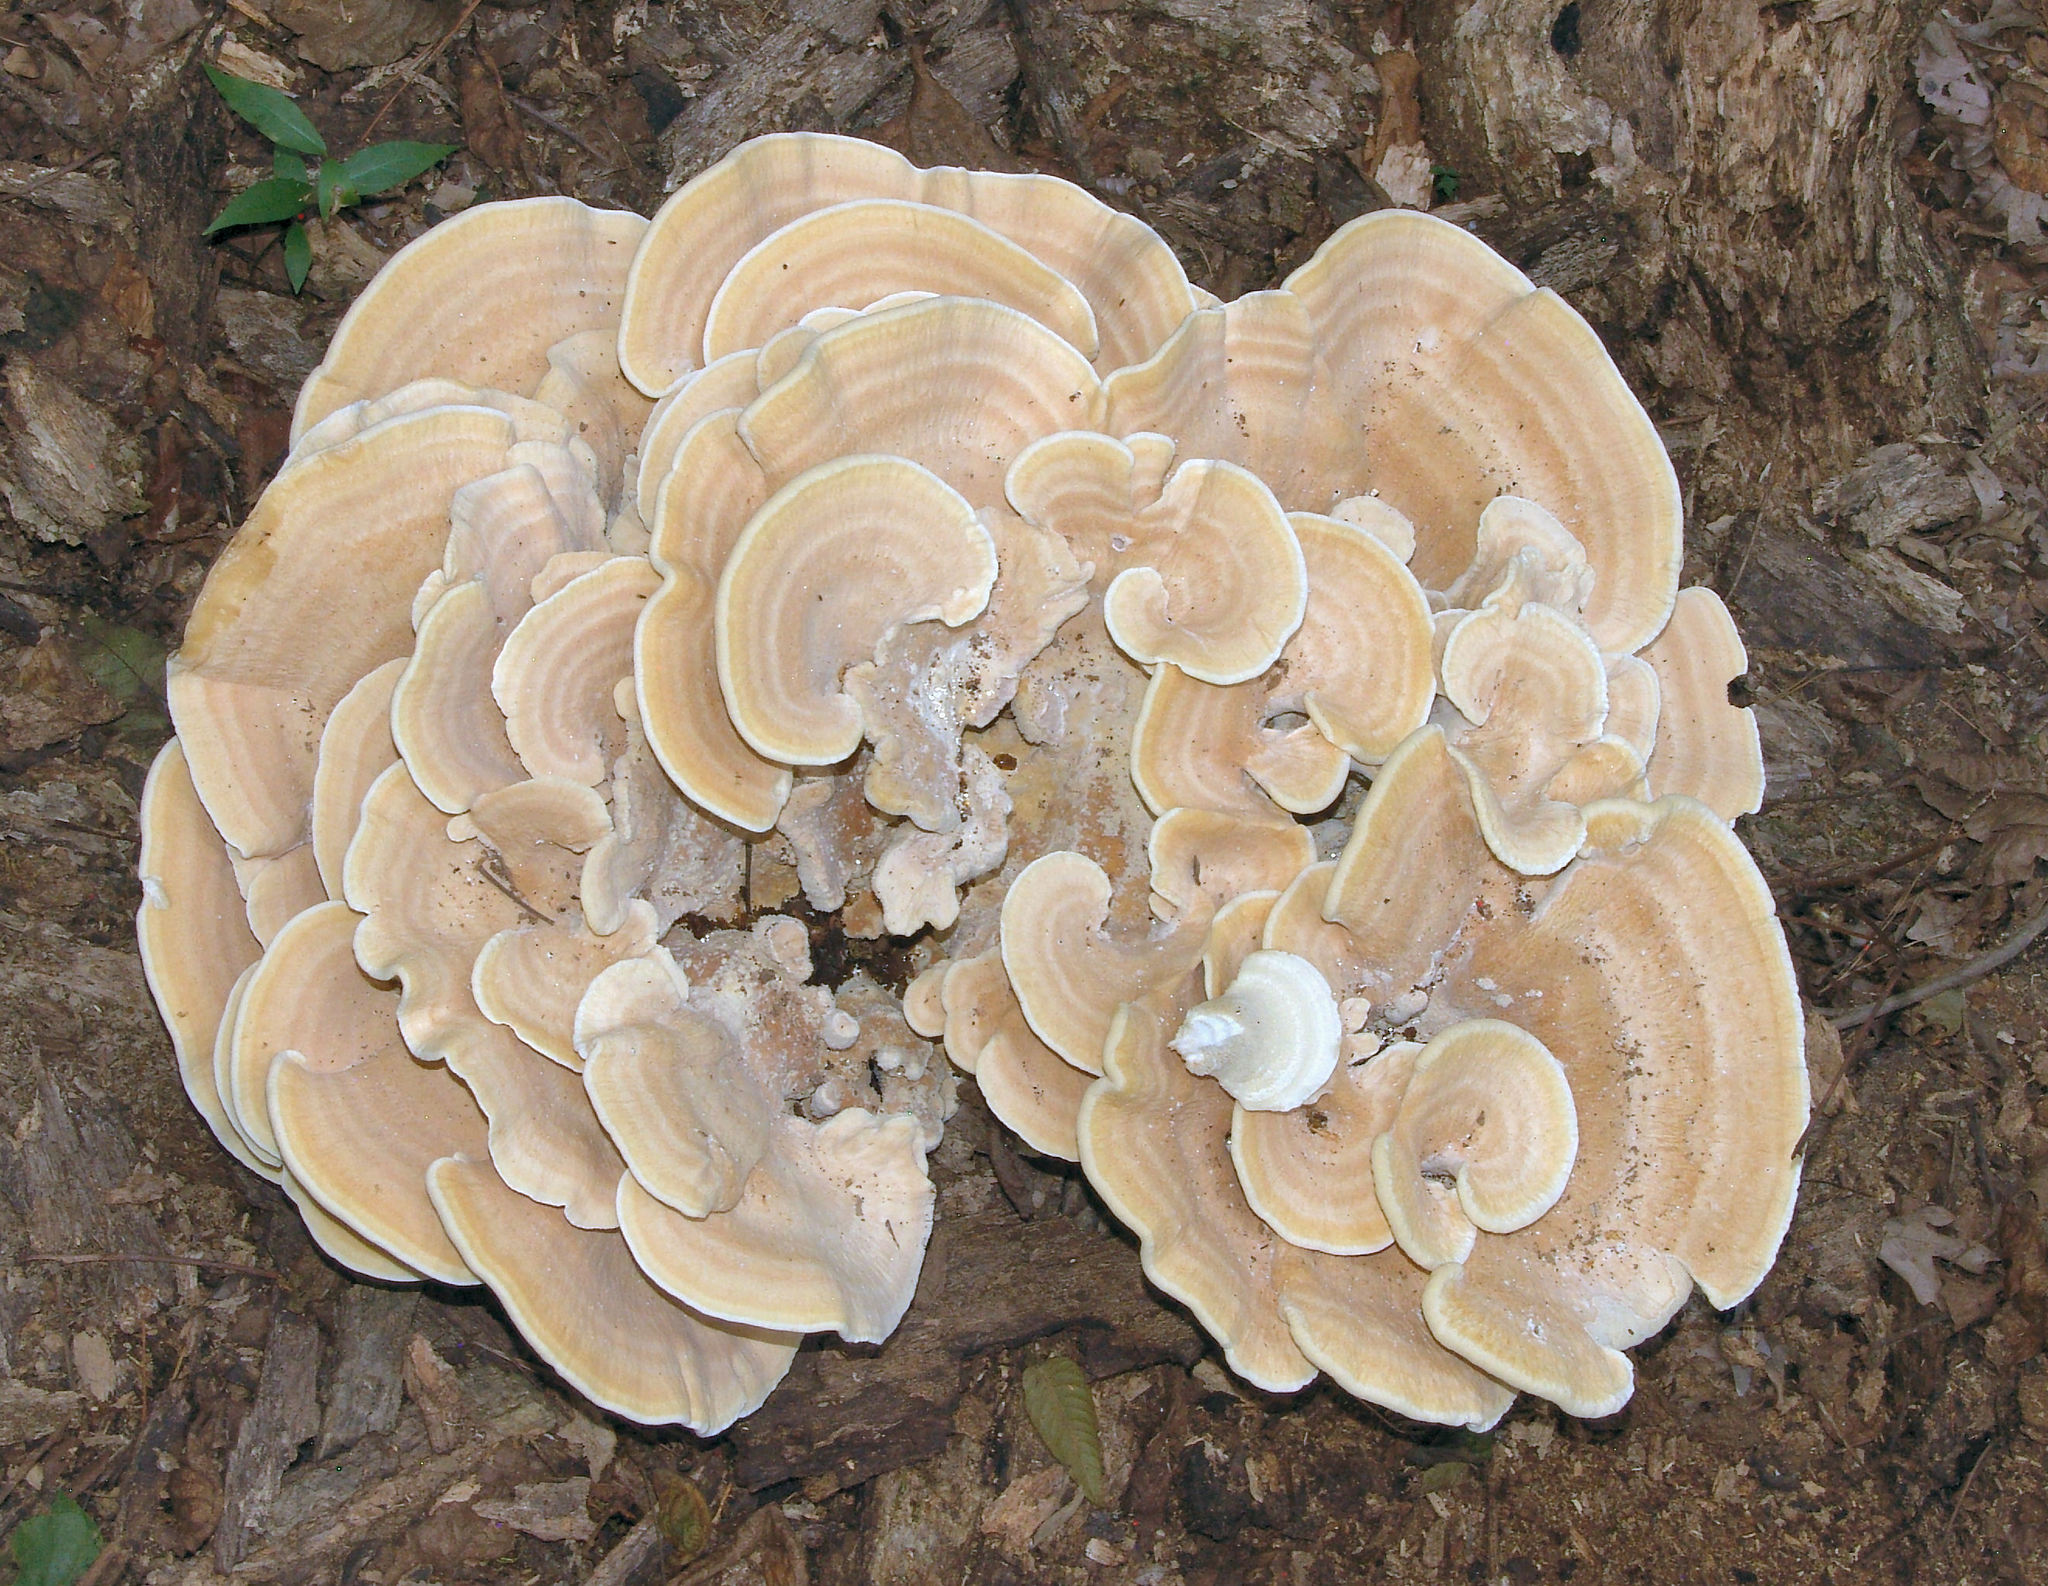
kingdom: Fungi
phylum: Basidiomycota
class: Agaricomycetes
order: Russulales
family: Bondarzewiaceae
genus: Bondarzewia
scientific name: Bondarzewia berkeleyi
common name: Berkeley's polypore
